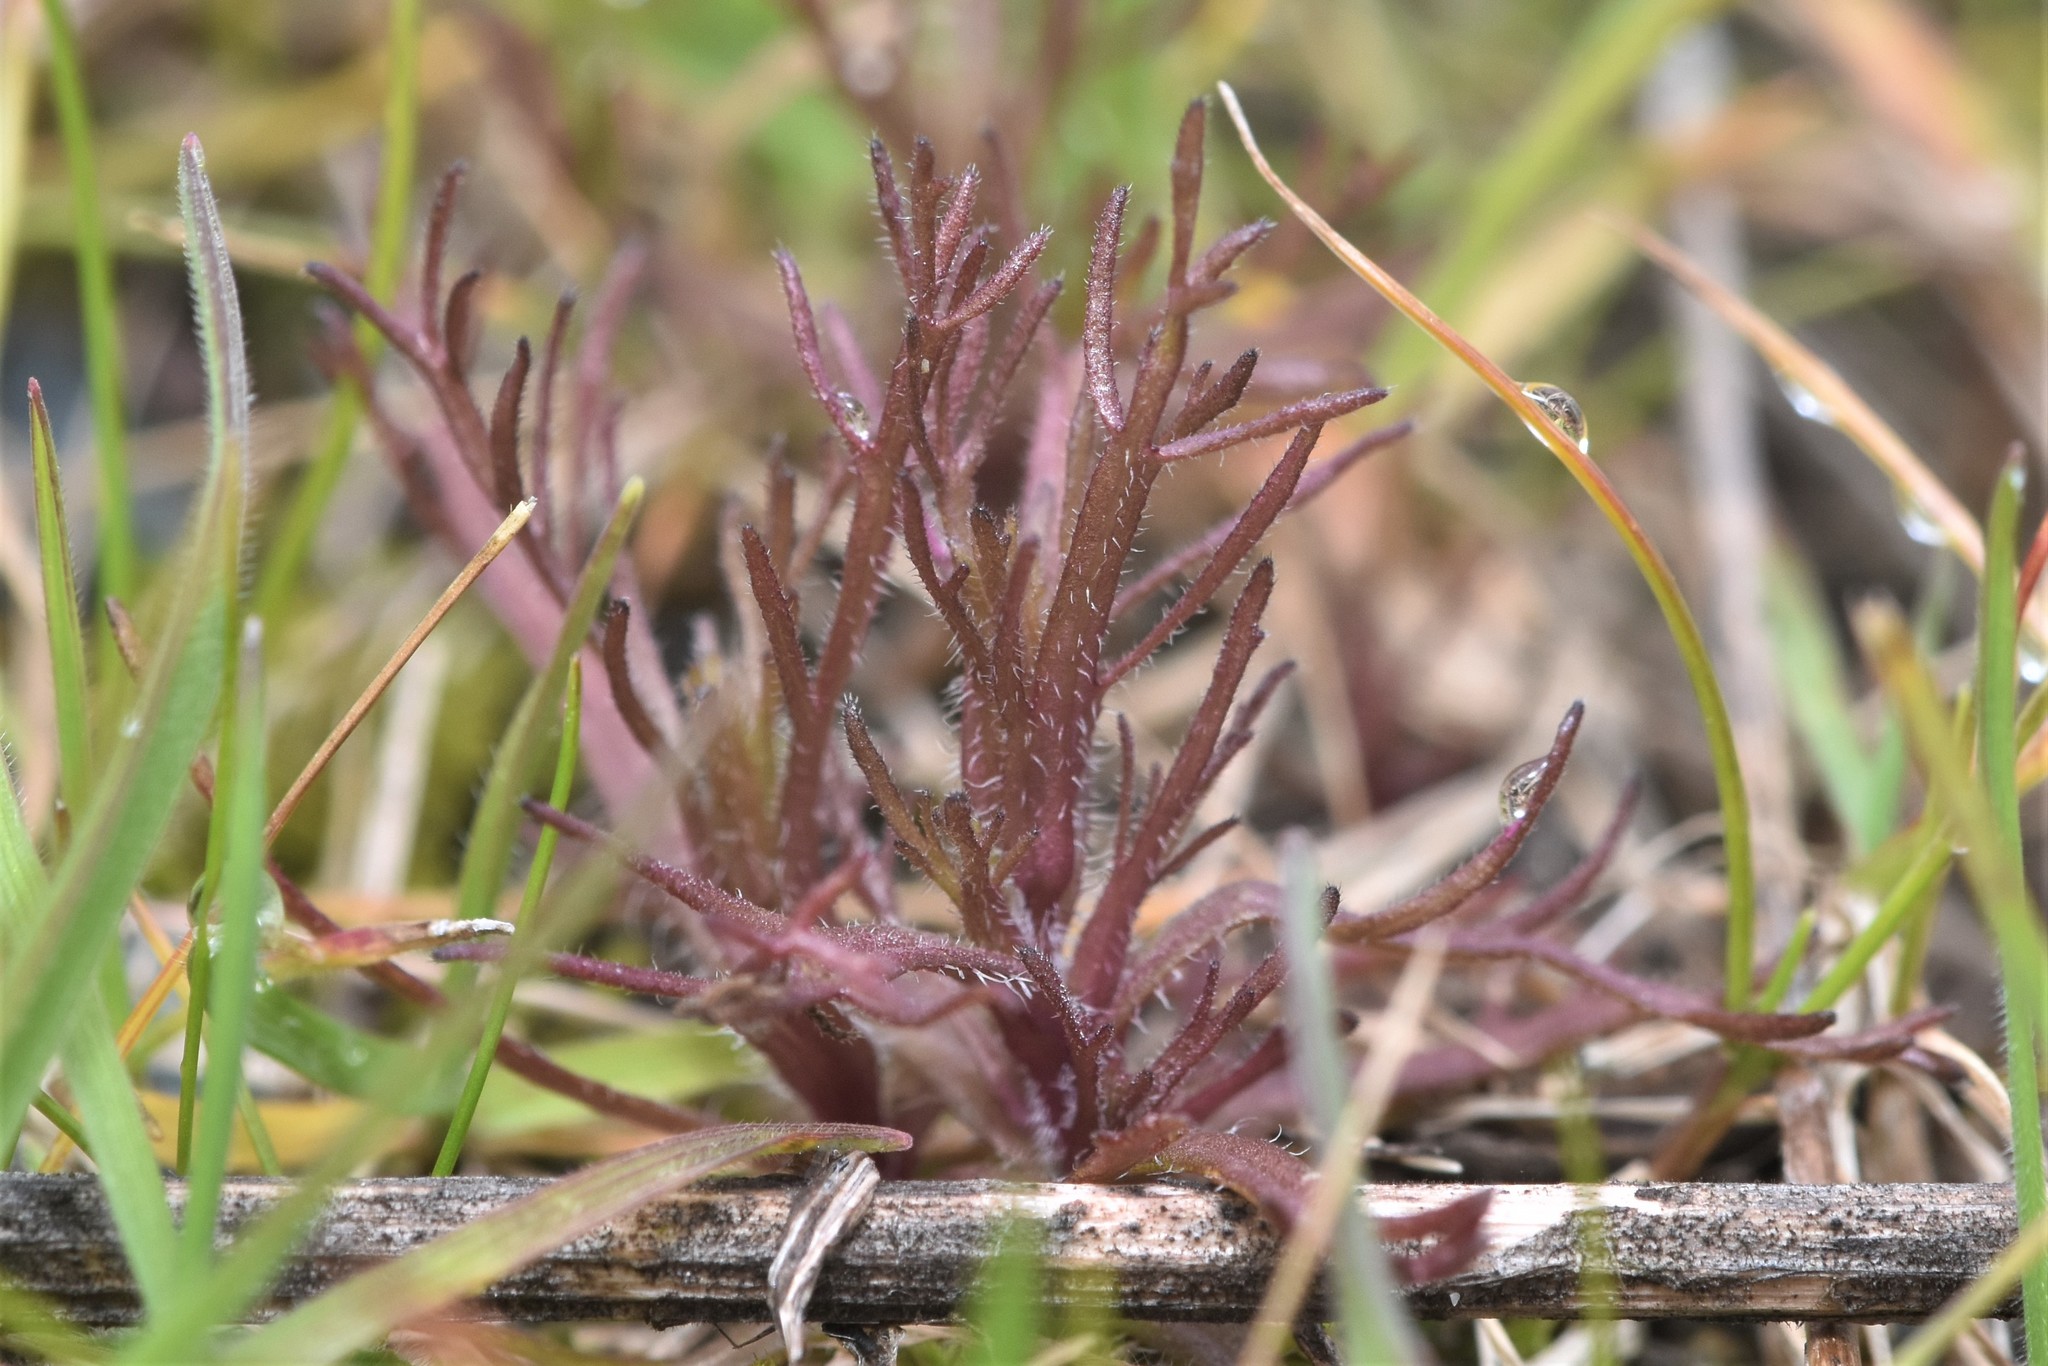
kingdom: Plantae
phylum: Tracheophyta
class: Magnoliopsida
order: Lamiales
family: Orobanchaceae
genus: Triphysaria
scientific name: Triphysaria pusilla
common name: Dwarf false owl-clover
